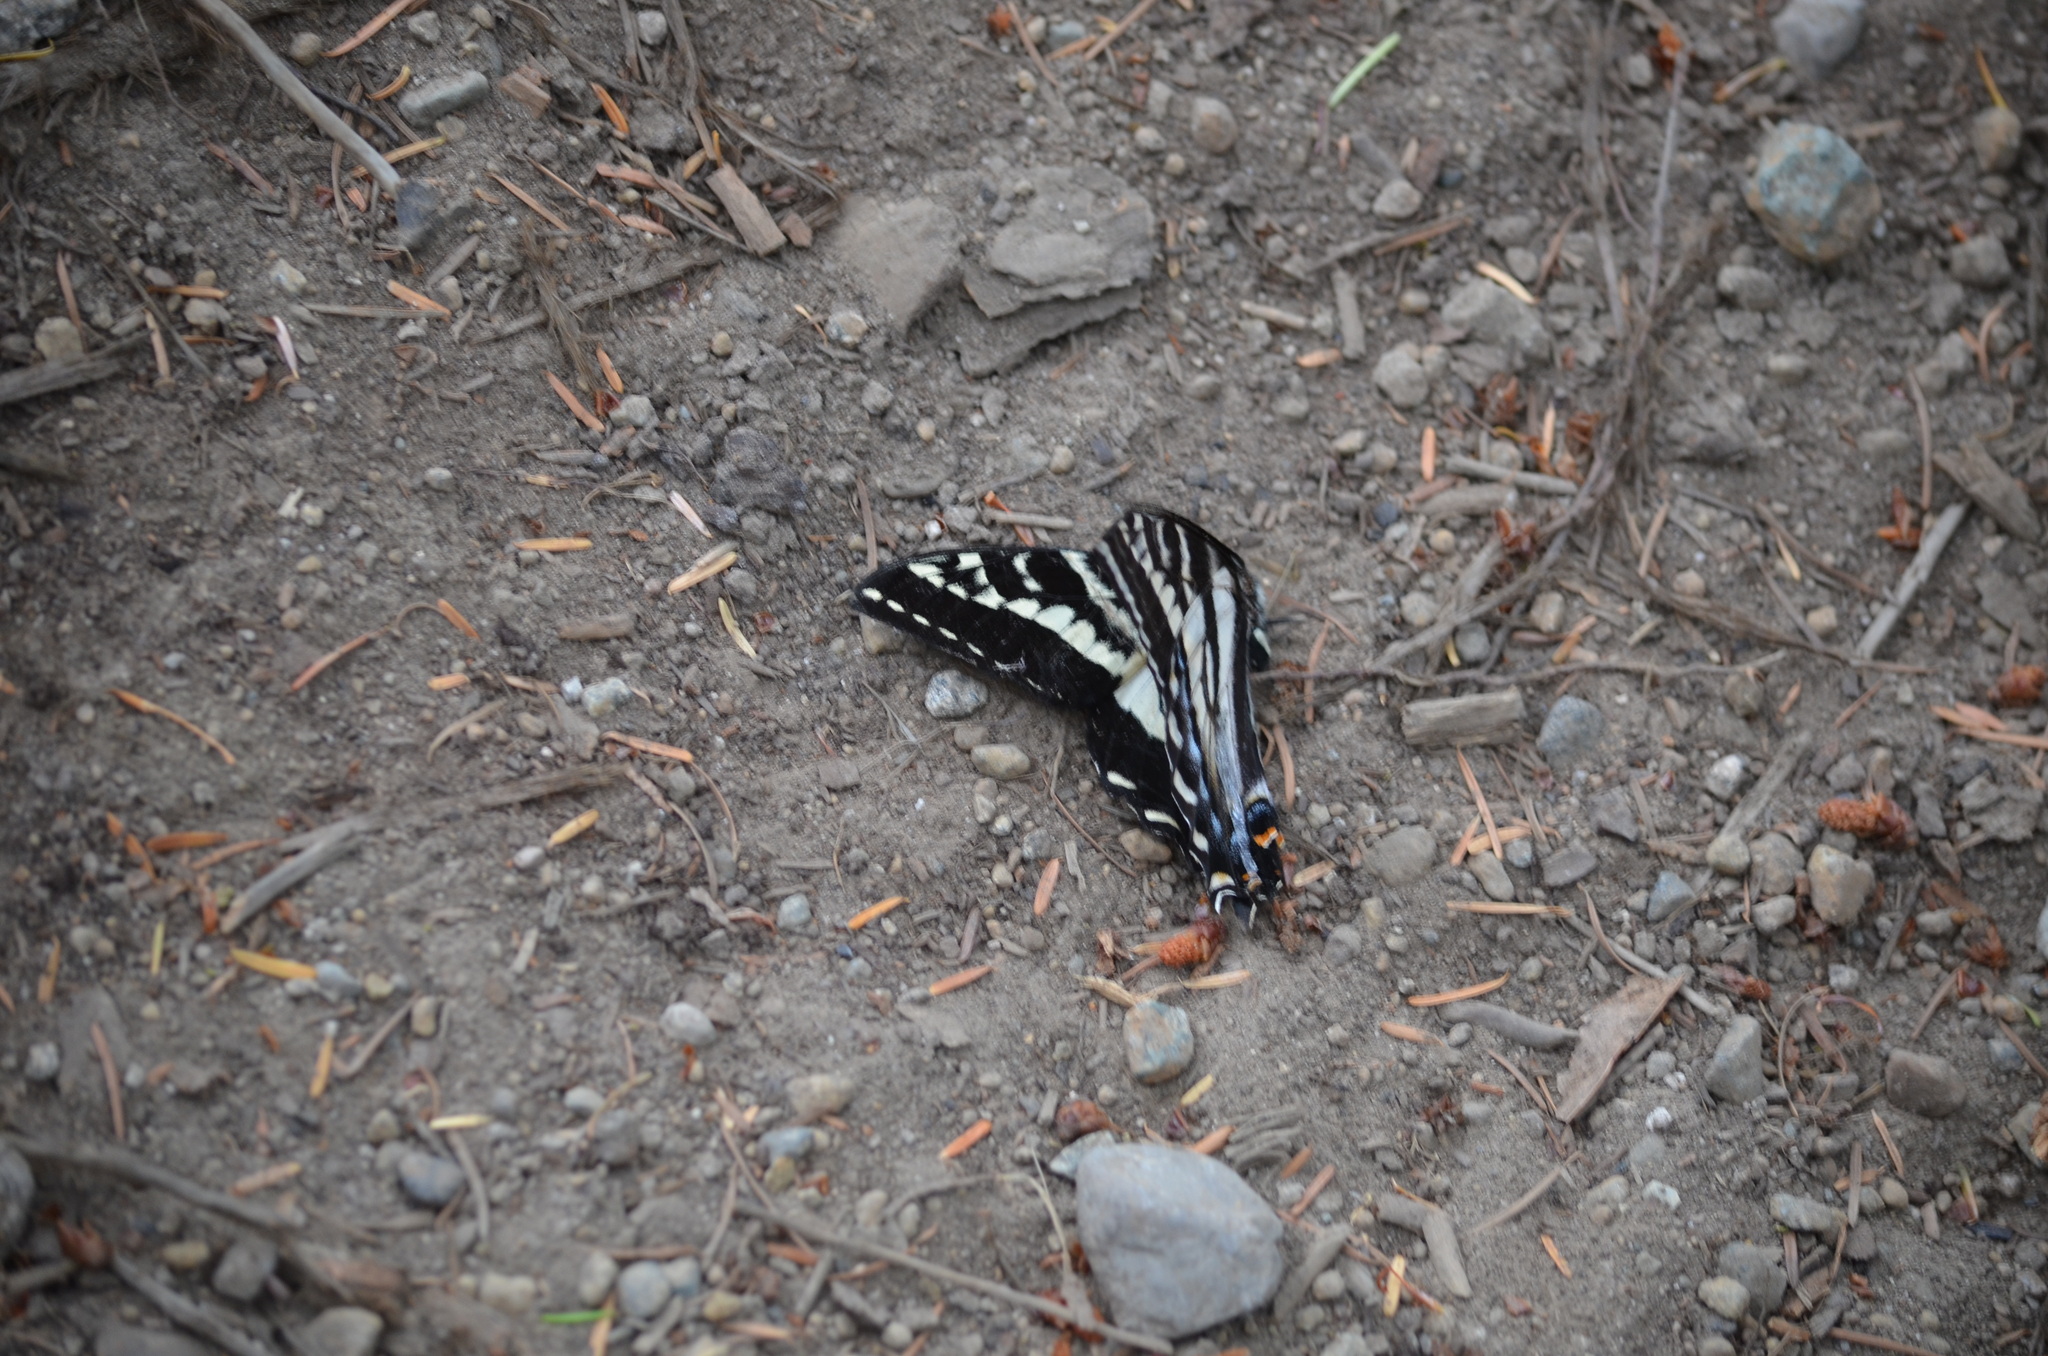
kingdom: Animalia
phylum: Arthropoda
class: Insecta
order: Lepidoptera
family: Papilionidae
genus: Papilio
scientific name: Papilio eurymedon
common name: Pale tiger swallowtail
